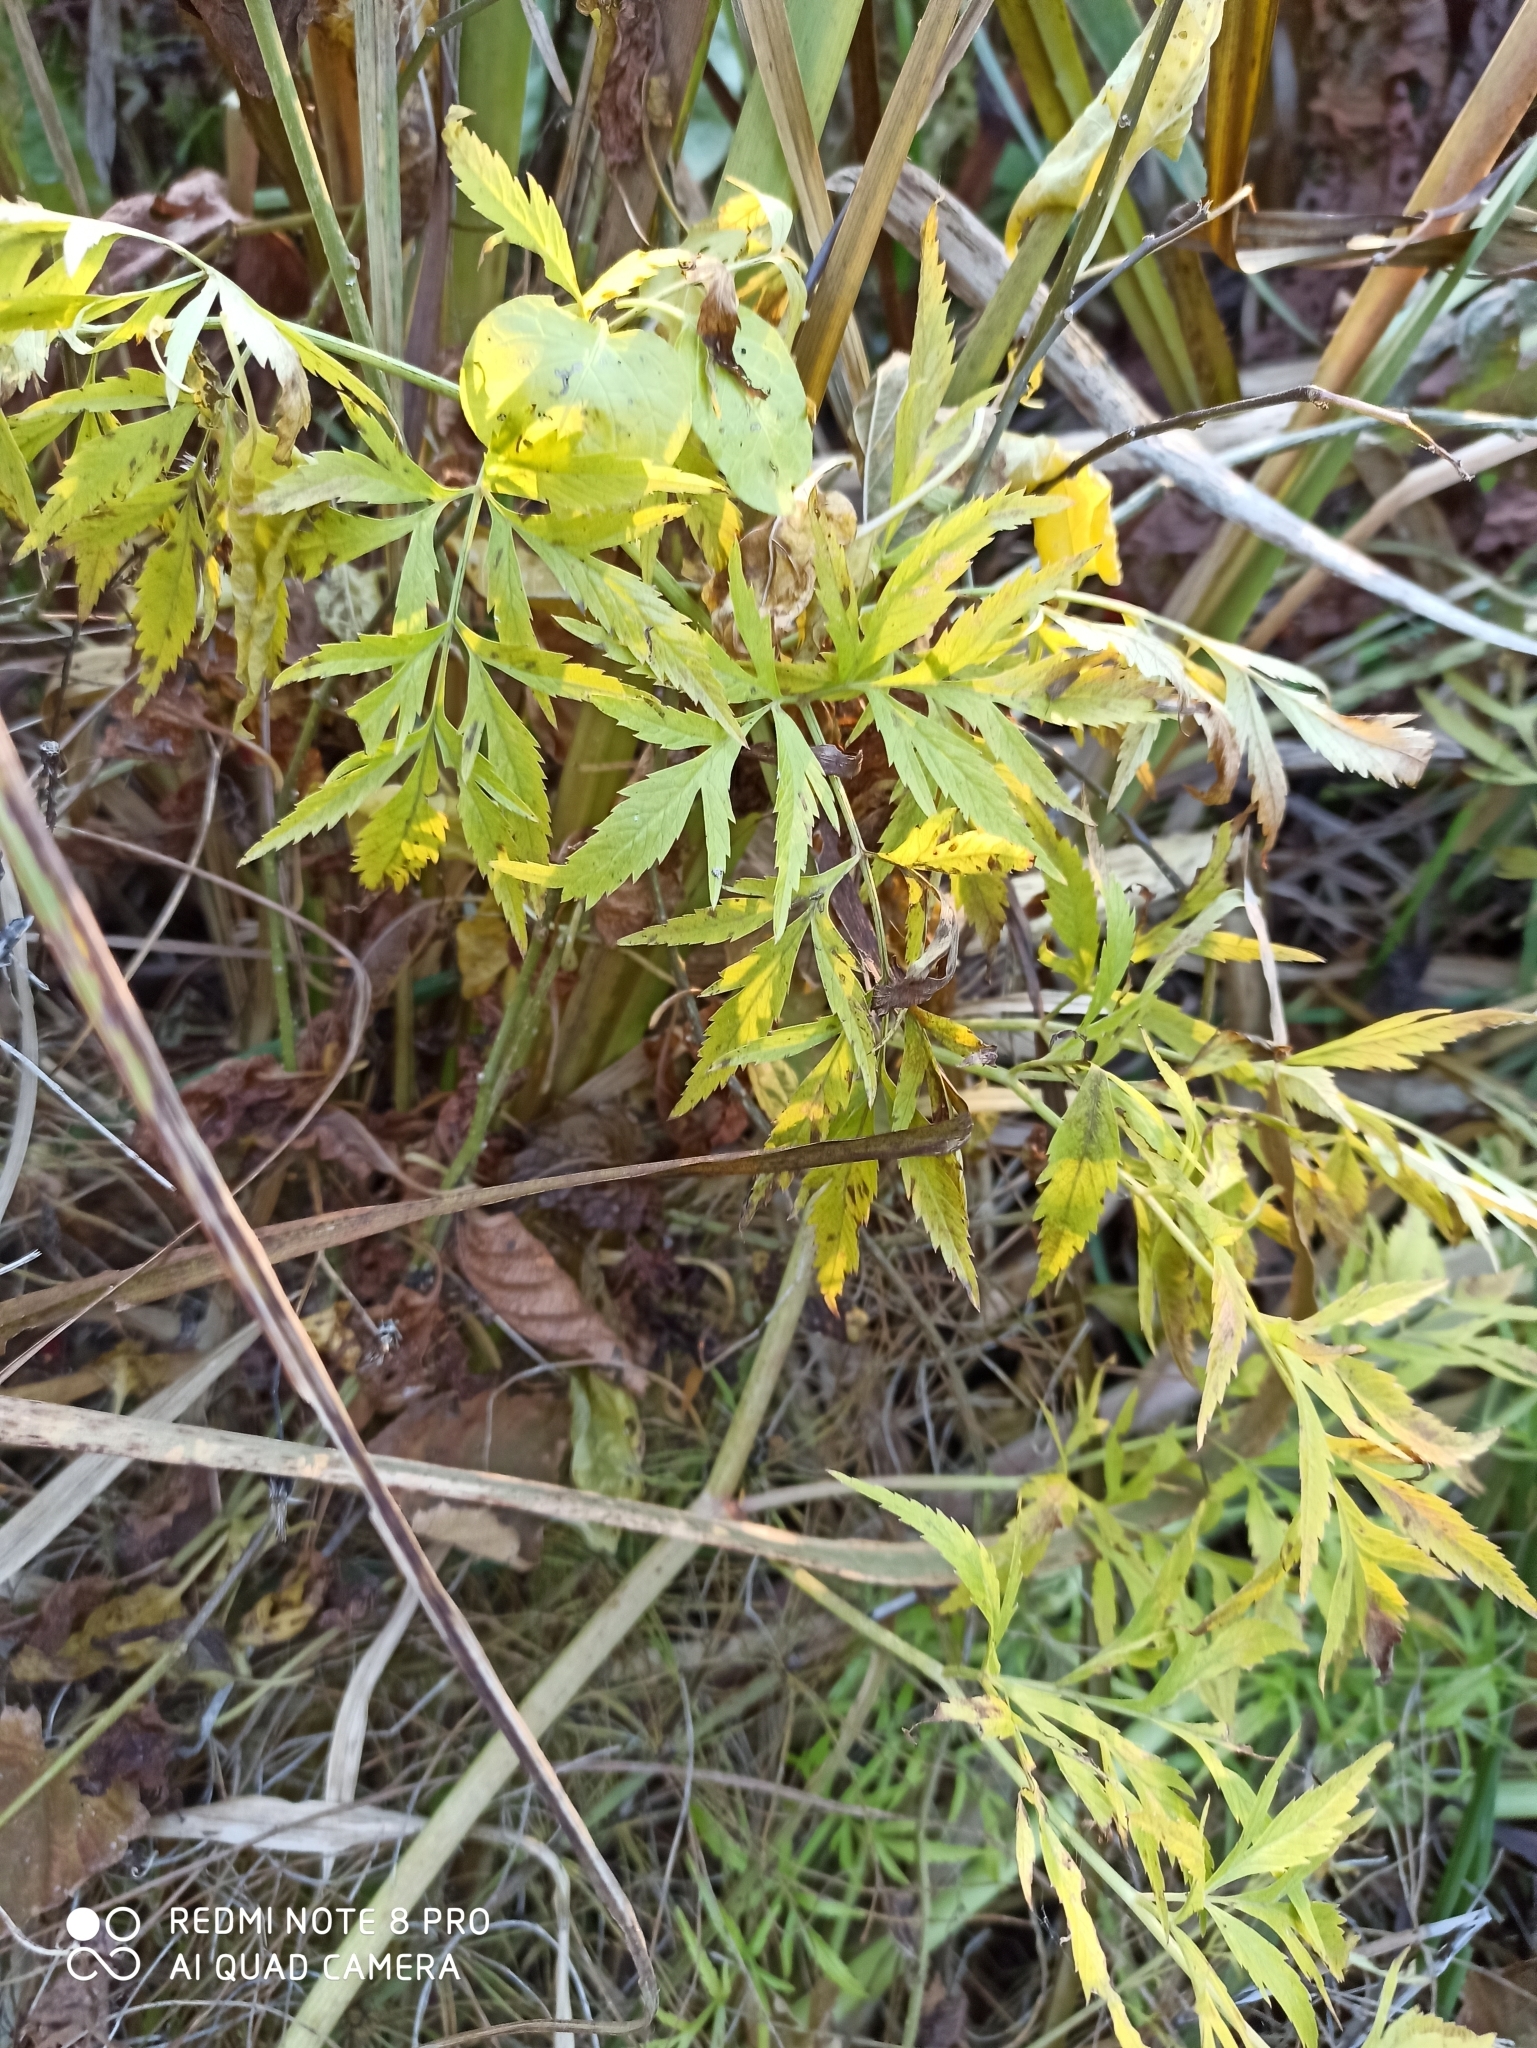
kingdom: Plantae
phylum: Tracheophyta
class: Magnoliopsida
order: Apiales
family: Apiaceae
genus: Cicuta
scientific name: Cicuta virosa
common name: Cowbane
